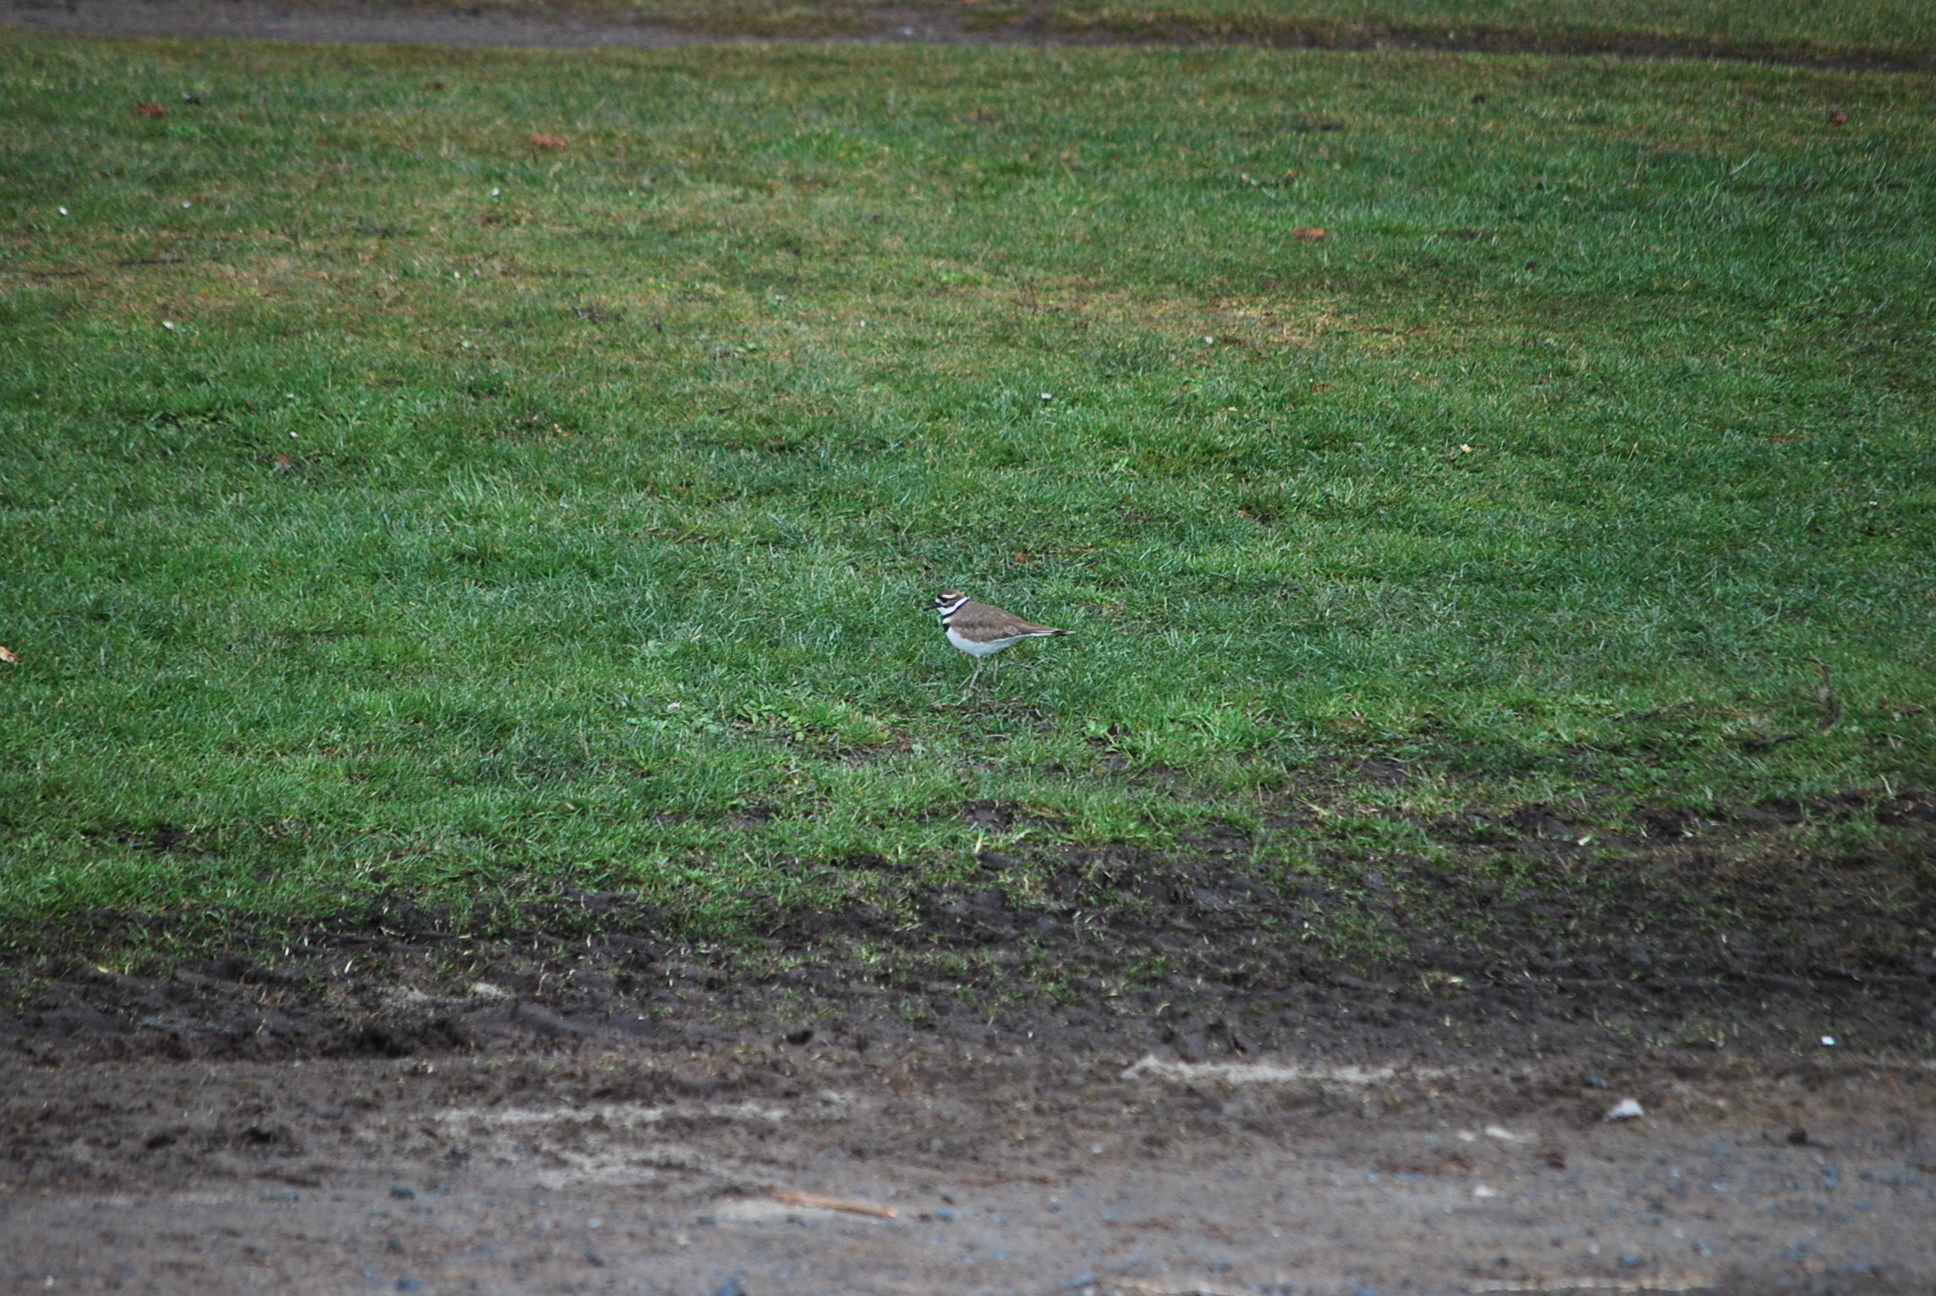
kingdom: Animalia
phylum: Chordata
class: Aves
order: Charadriiformes
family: Charadriidae
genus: Charadrius
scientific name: Charadrius vociferus
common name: Killdeer
